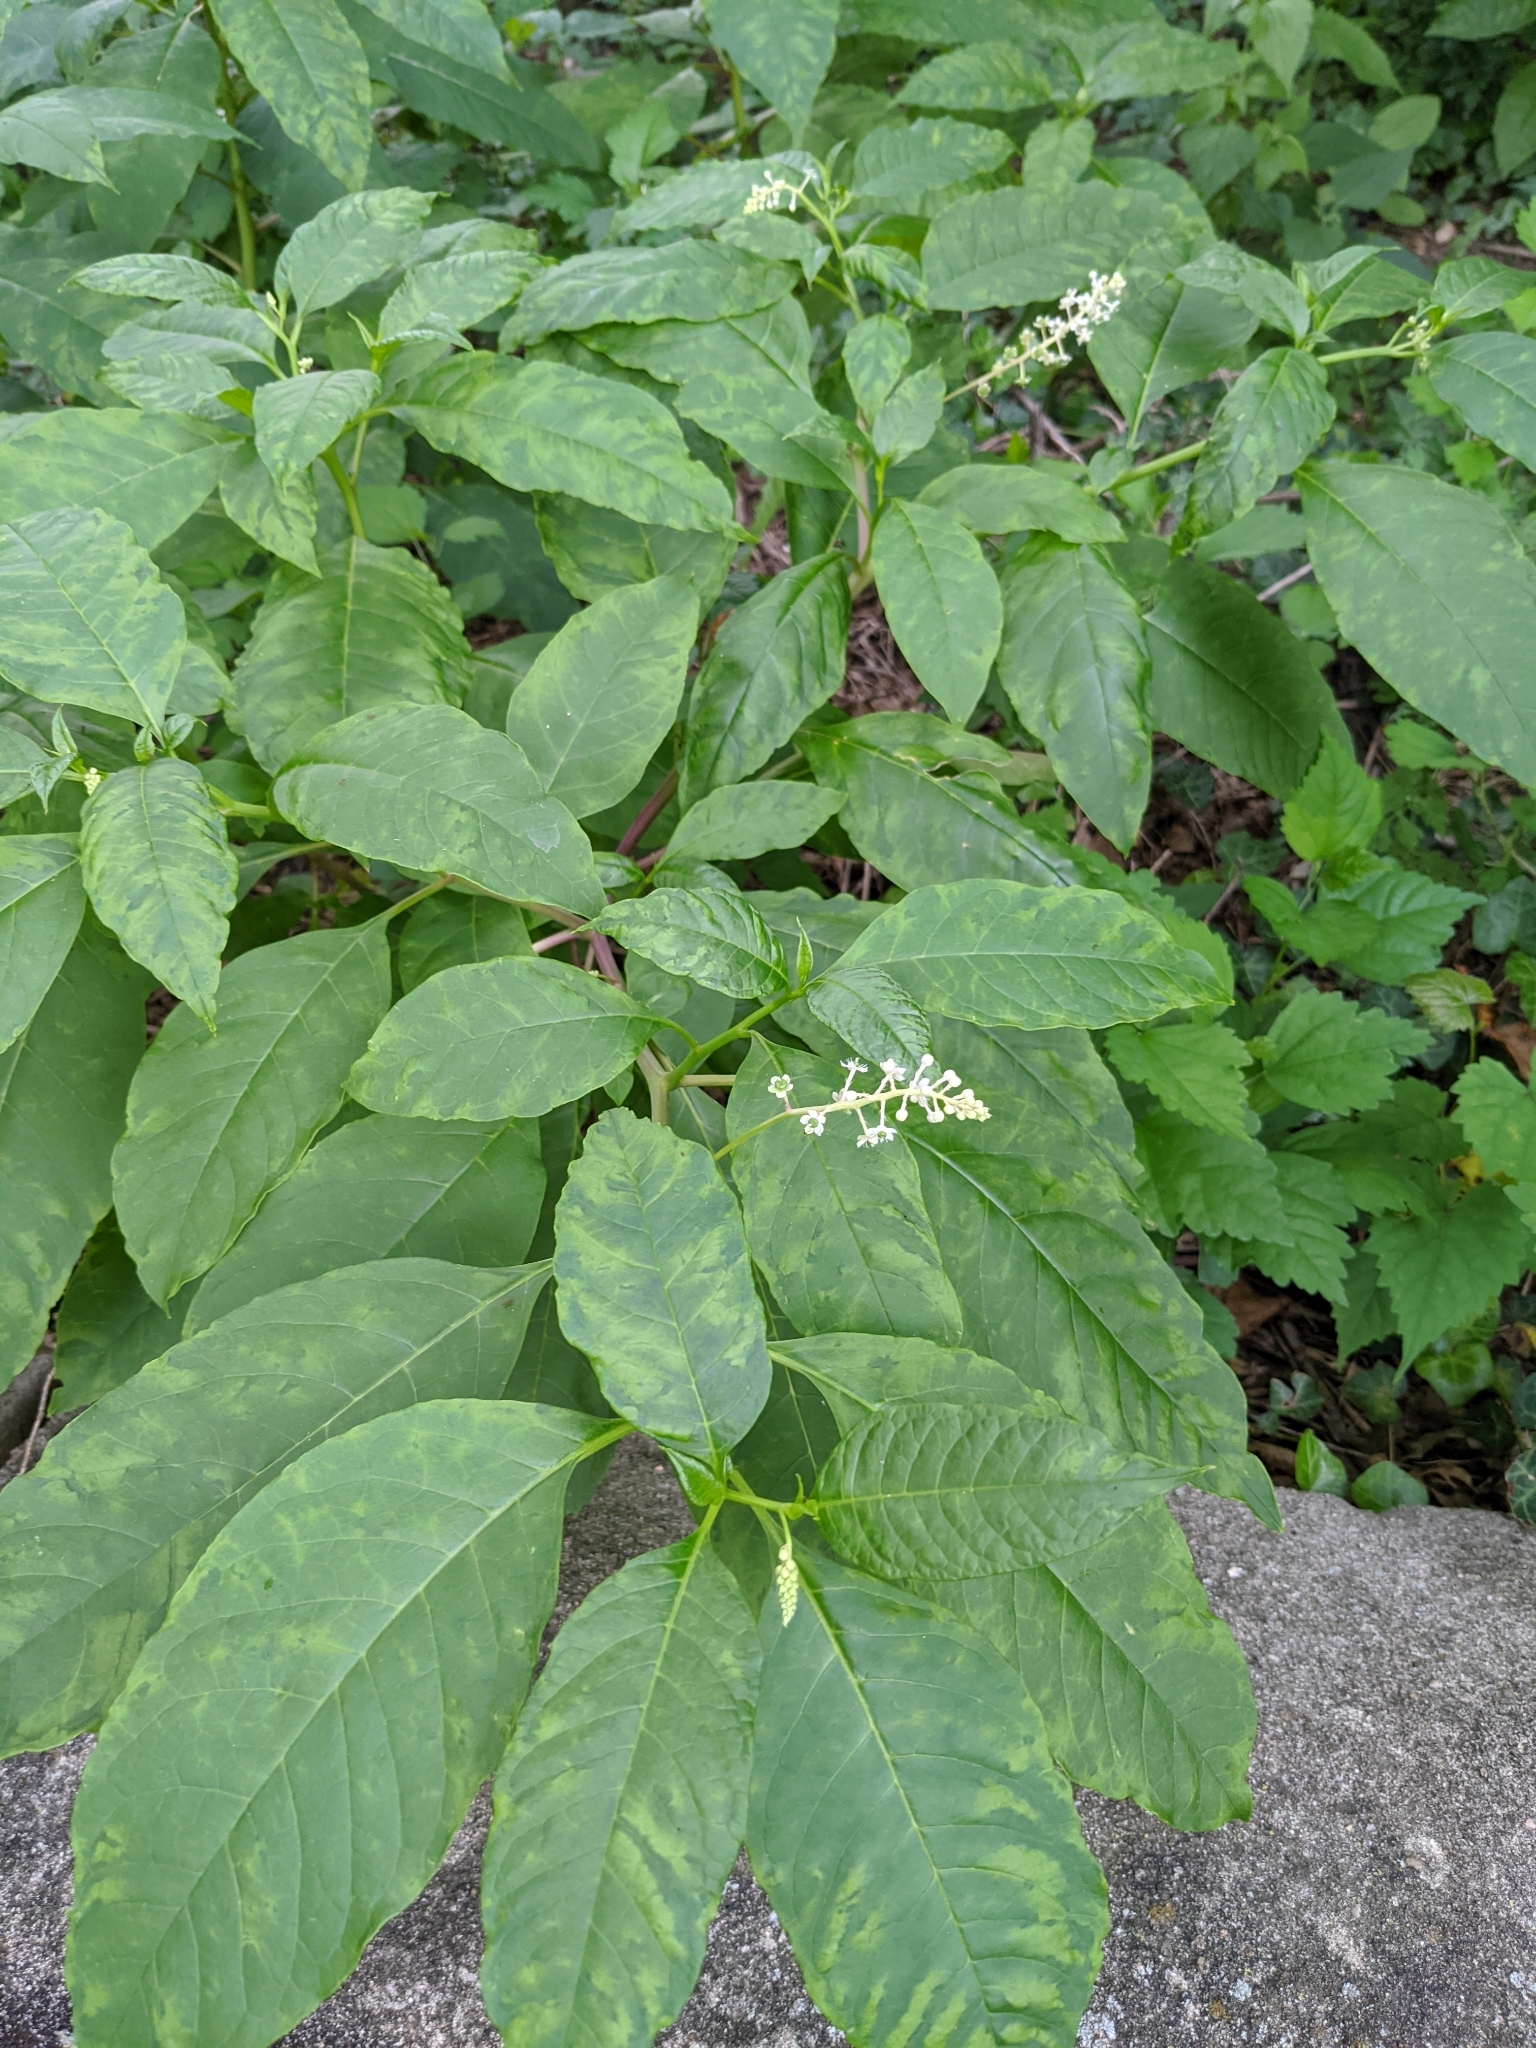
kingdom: Plantae
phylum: Tracheophyta
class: Magnoliopsida
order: Caryophyllales
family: Phytolaccaceae
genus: Phytolacca
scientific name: Phytolacca americana
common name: American pokeweed
